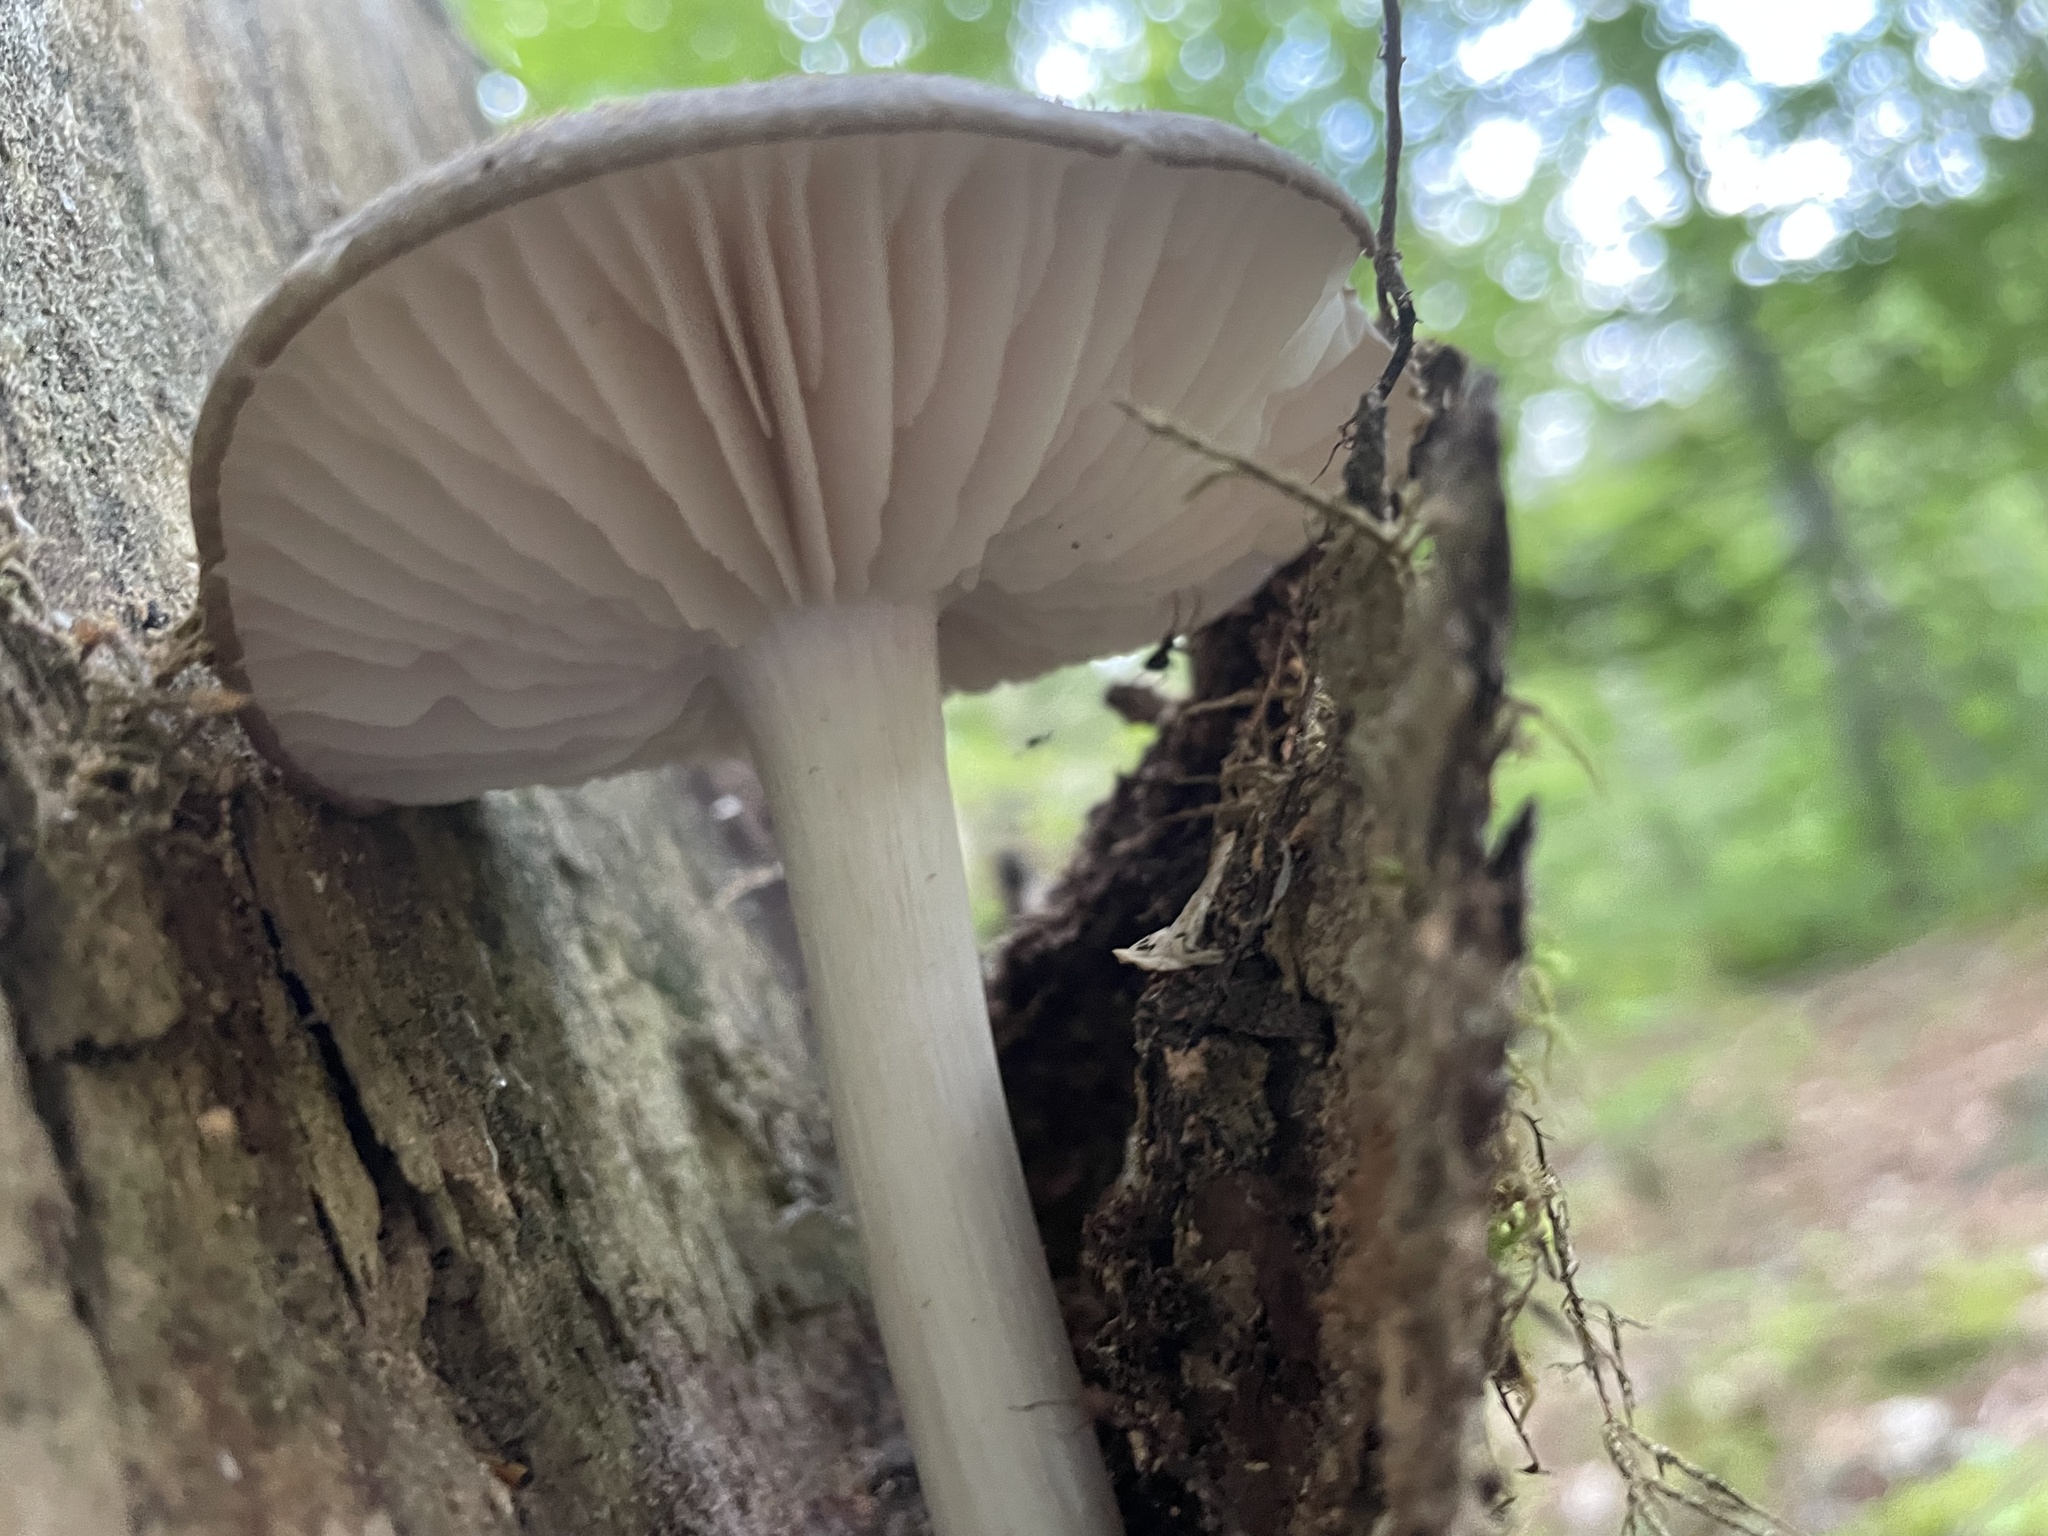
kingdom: Fungi
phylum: Basidiomycota
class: Agaricomycetes
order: Agaricales
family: Tricholomataceae
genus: Megacollybia
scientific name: Megacollybia rodmanii
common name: Eastern american platterful mushroom
